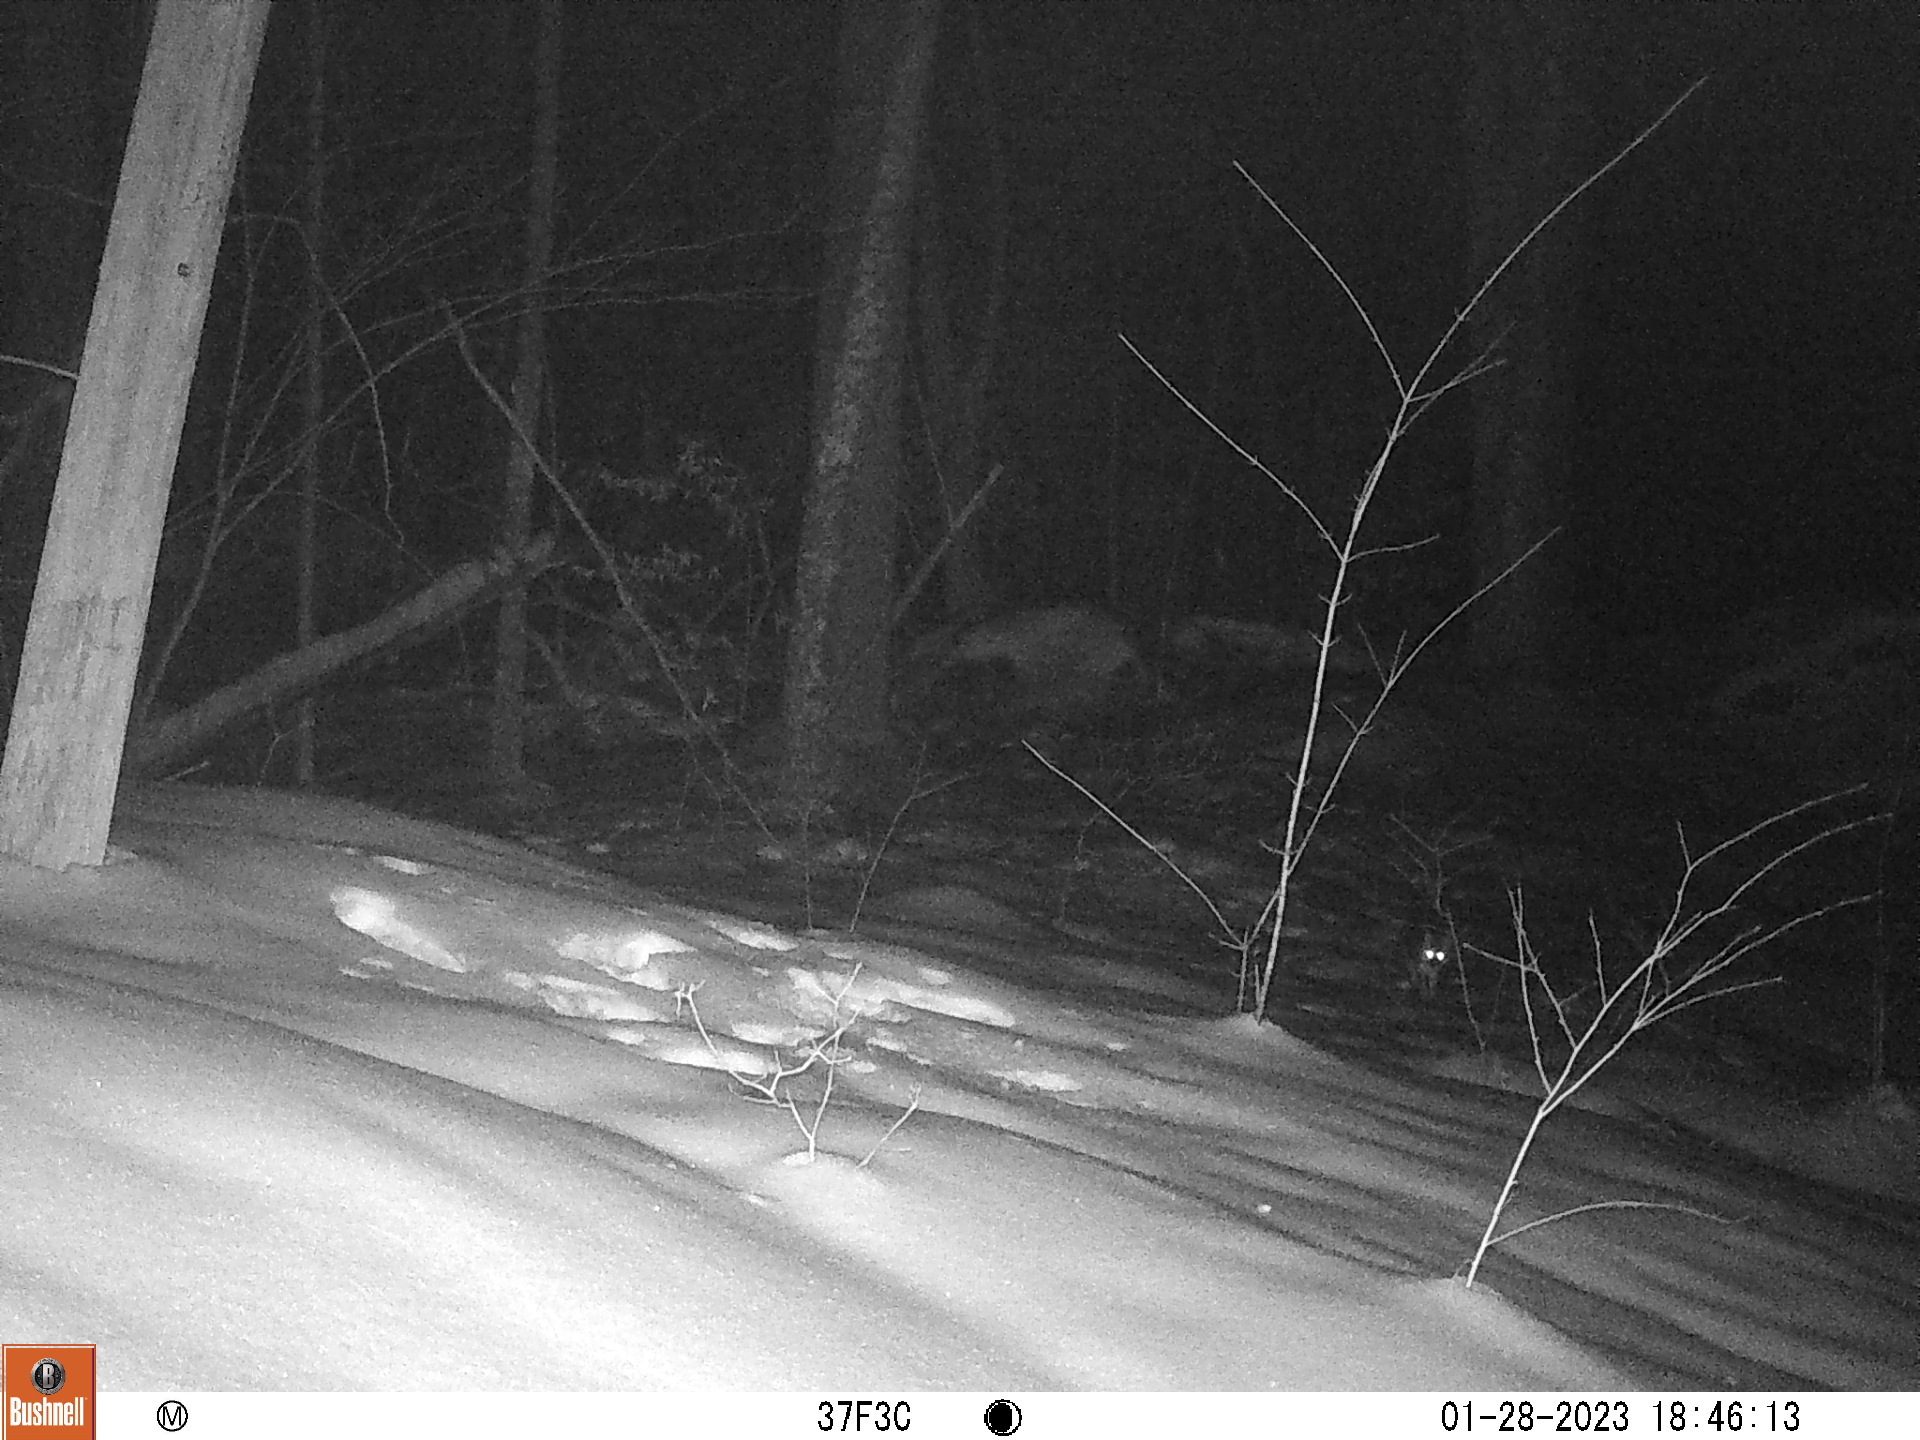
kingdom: Animalia
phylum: Chordata
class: Mammalia
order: Carnivora
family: Canidae
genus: Urocyon
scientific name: Urocyon cinereoargenteus
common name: Gray fox
